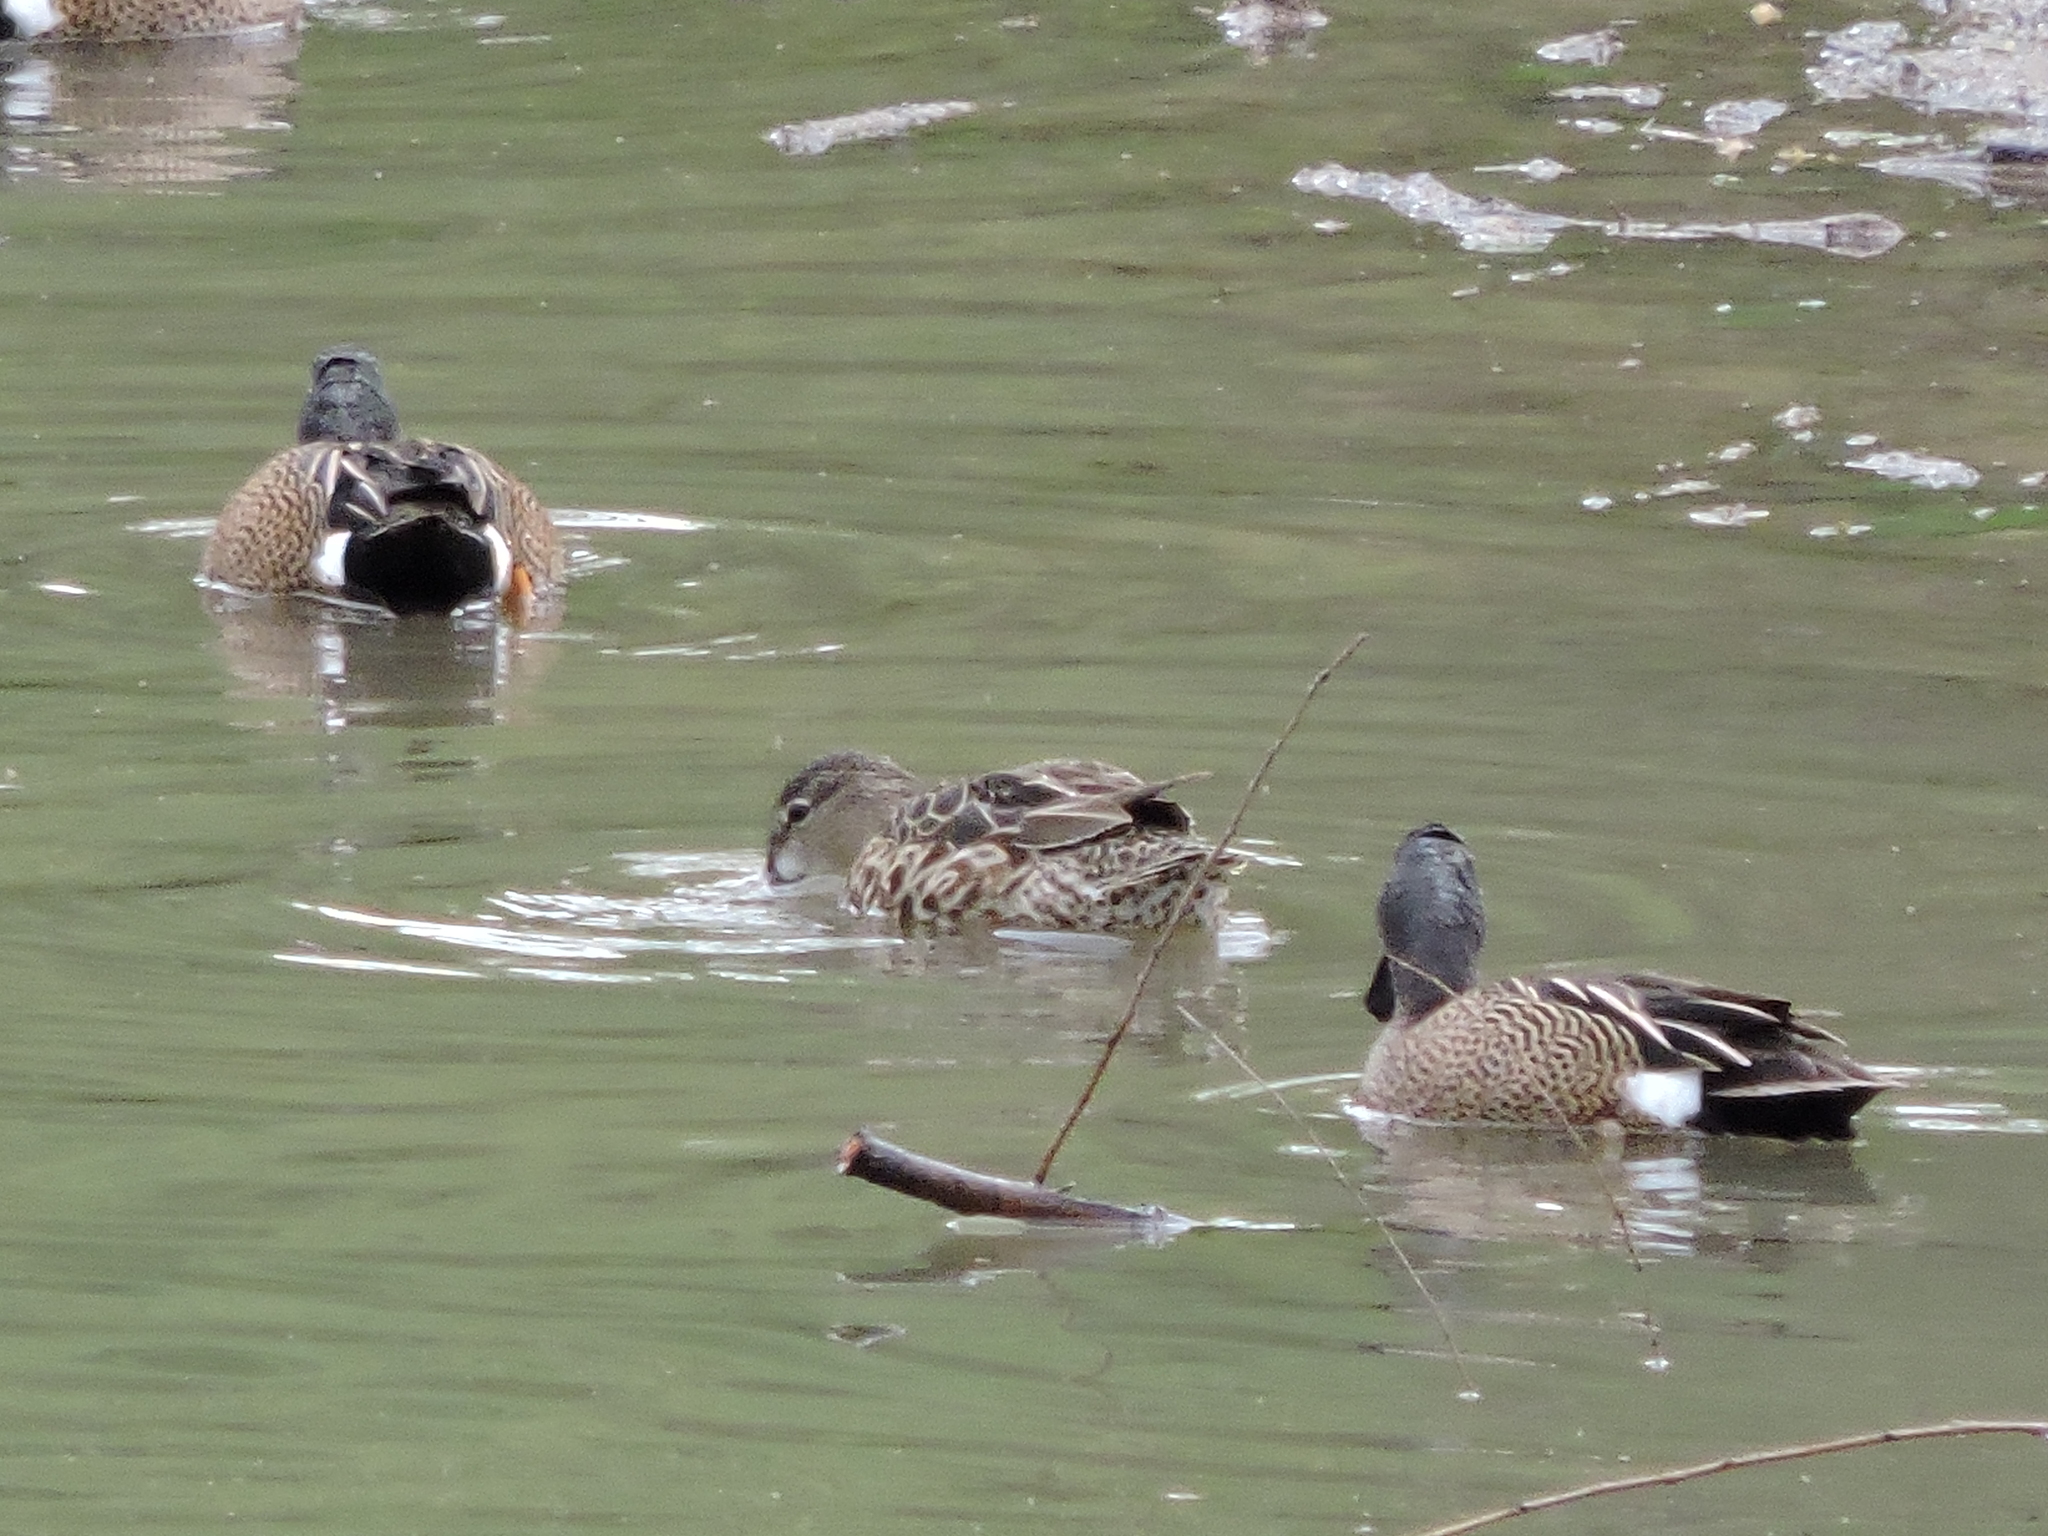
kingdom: Animalia
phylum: Chordata
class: Aves
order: Anseriformes
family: Anatidae
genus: Spatula
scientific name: Spatula discors
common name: Blue-winged teal
